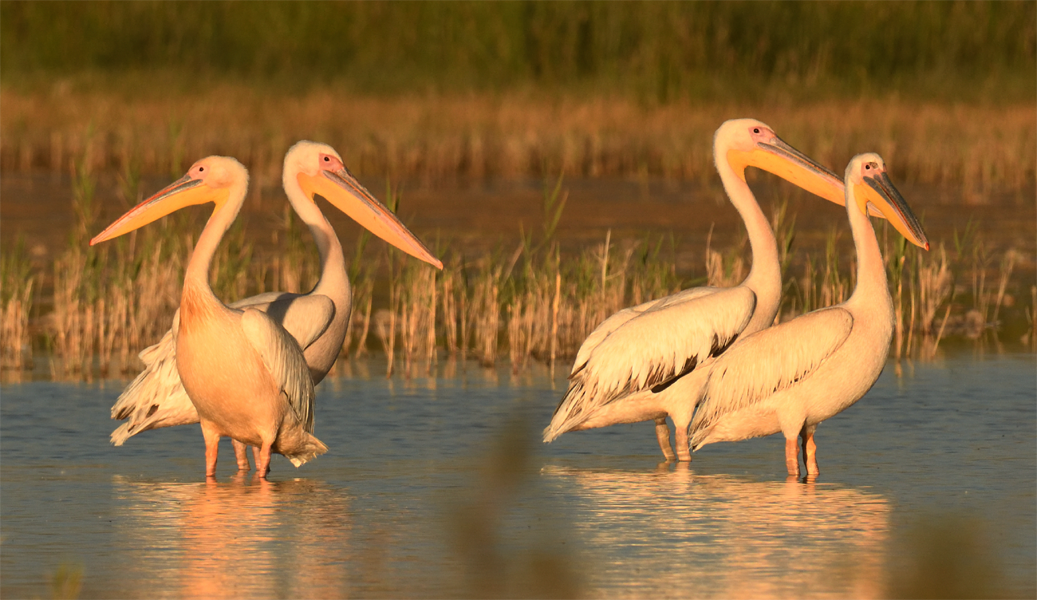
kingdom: Animalia
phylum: Chordata
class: Aves
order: Pelecaniformes
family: Pelecanidae
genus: Pelecanus
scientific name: Pelecanus onocrotalus
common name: Great white pelican
